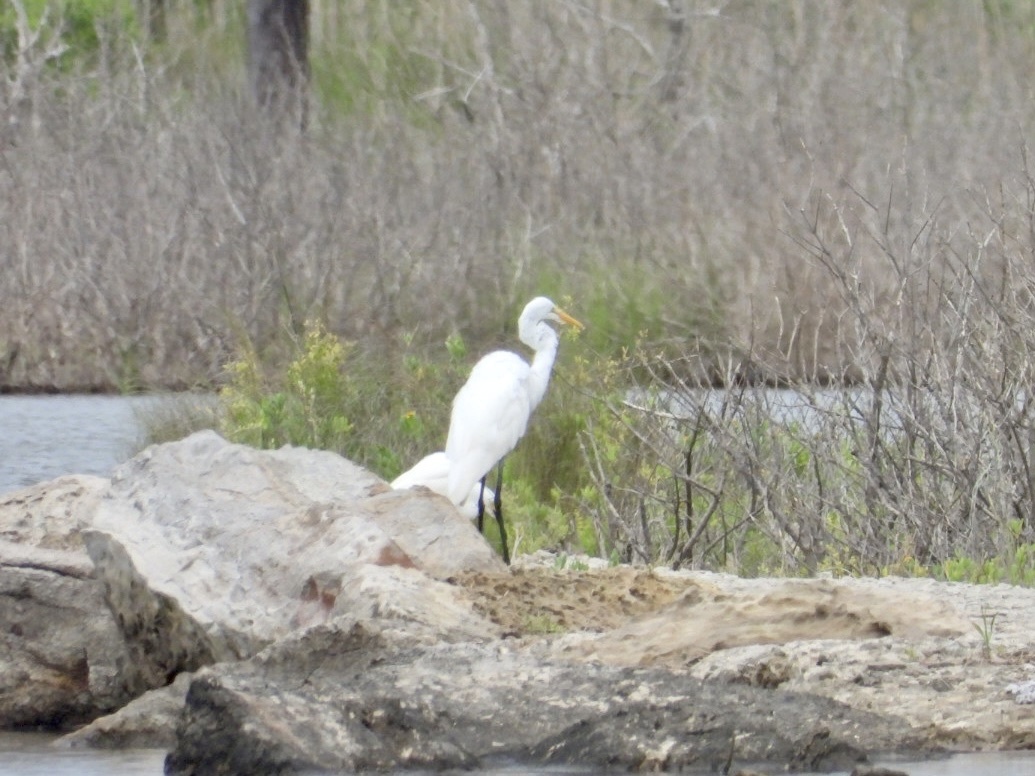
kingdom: Animalia
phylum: Chordata
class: Aves
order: Pelecaniformes
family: Ardeidae
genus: Egretta
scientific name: Egretta thula
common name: Snowy egret
